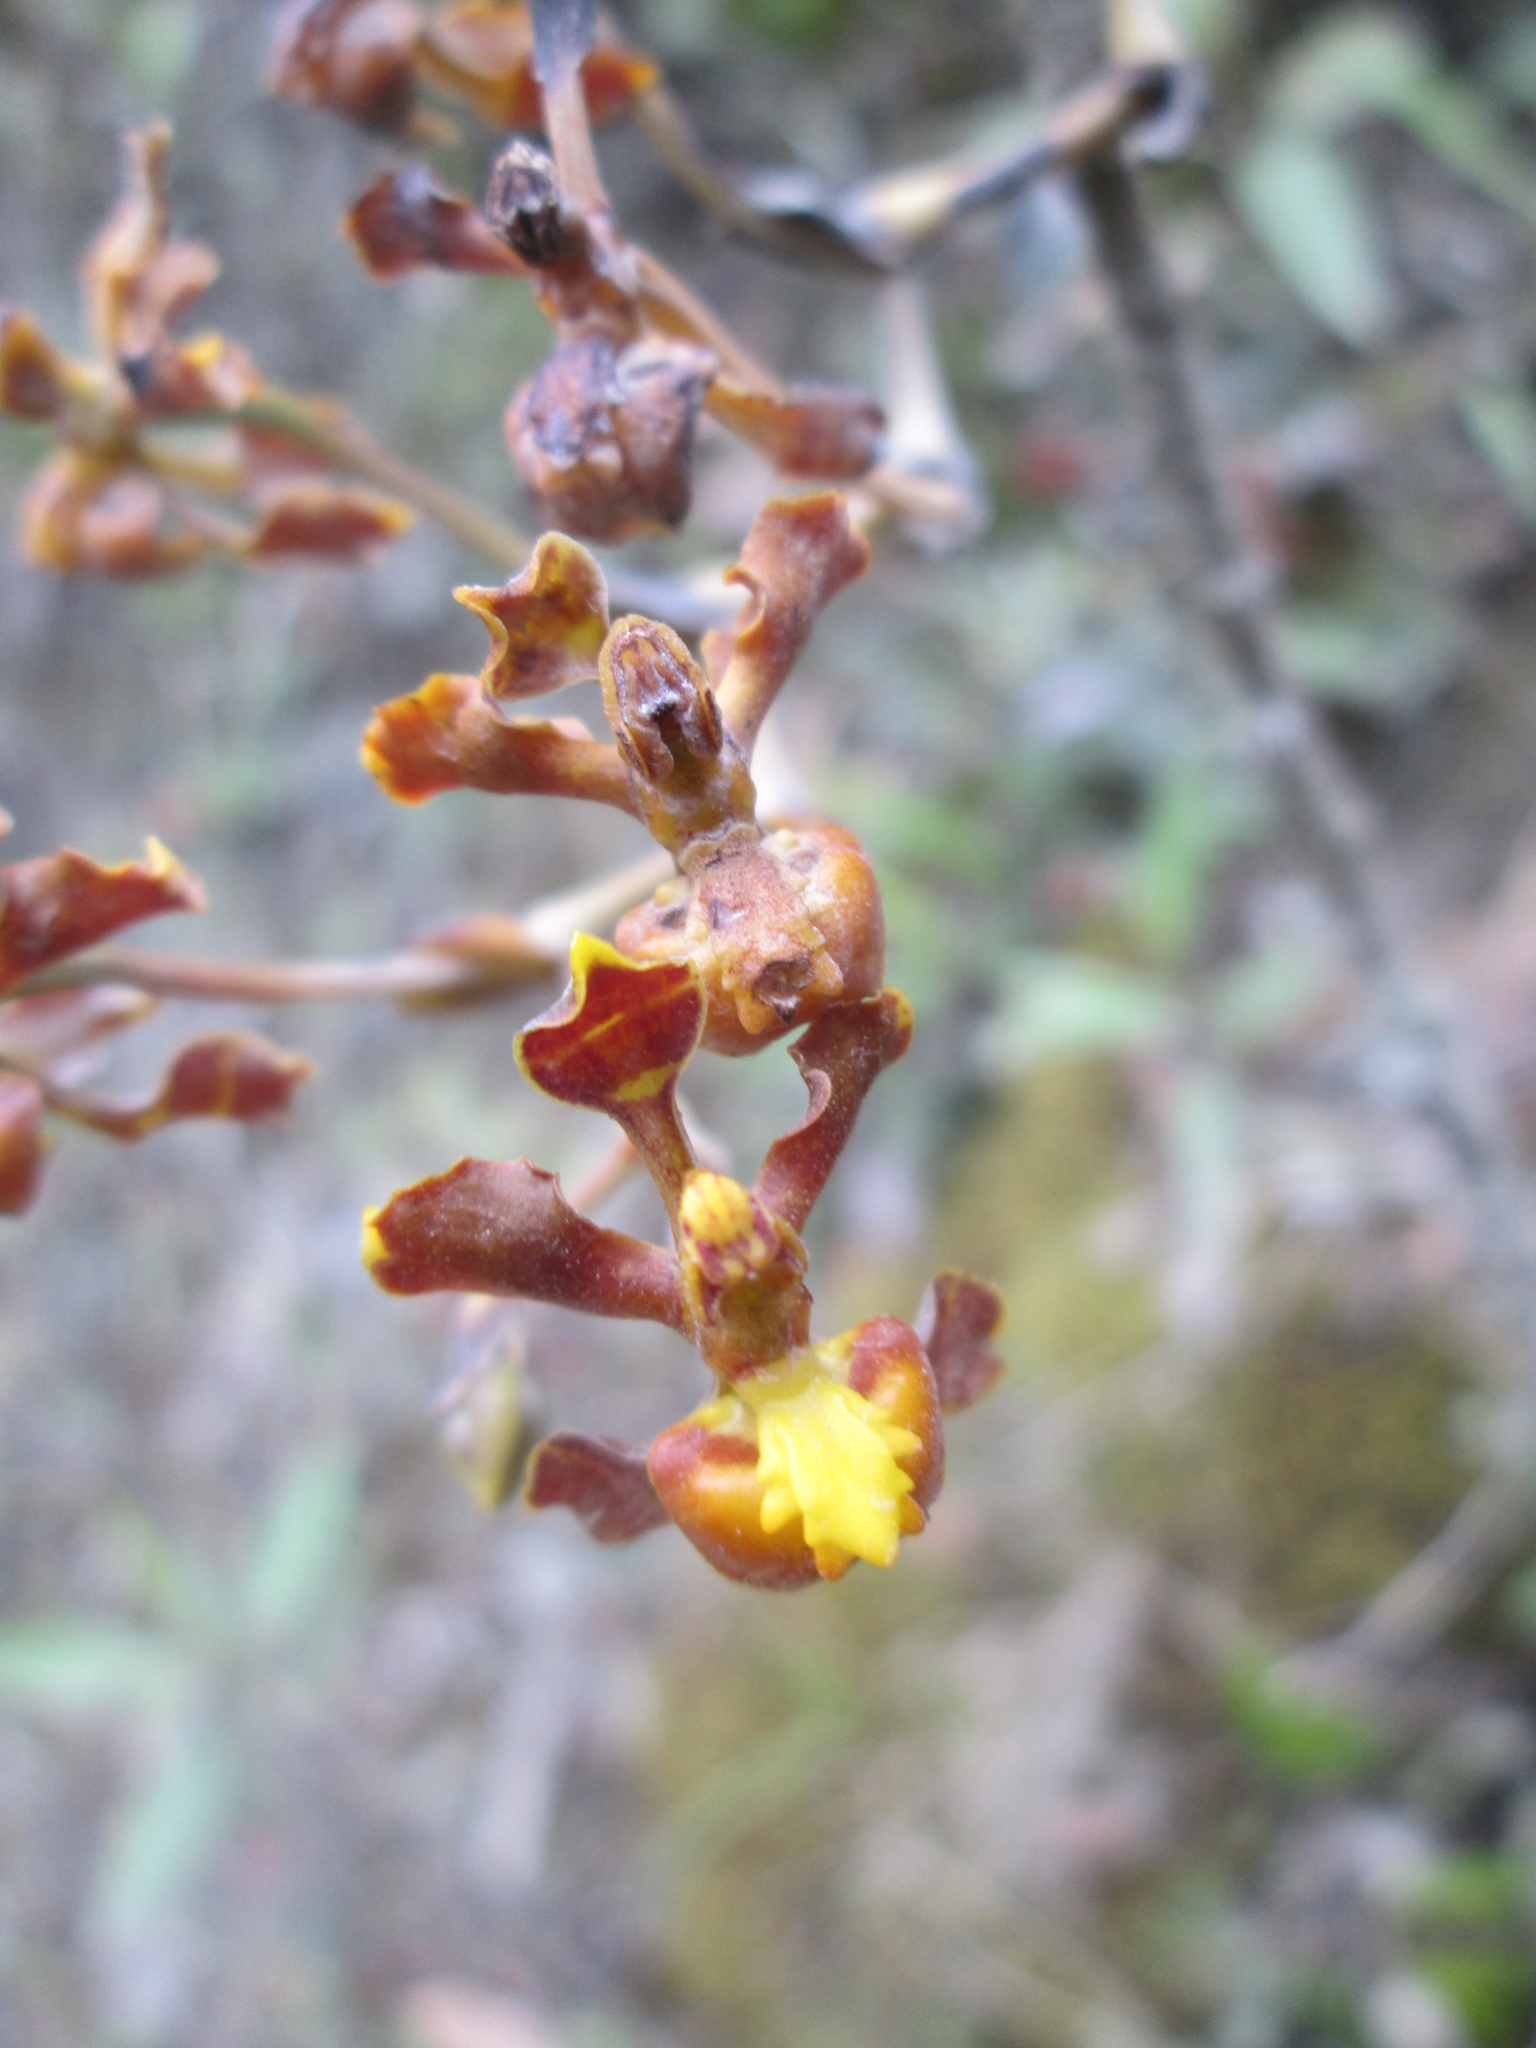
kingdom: Plantae
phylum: Tracheophyta
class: Liliopsida
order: Asparagales
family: Orchidaceae
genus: Cyrtochilum
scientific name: Cyrtochilum cimiciferum
